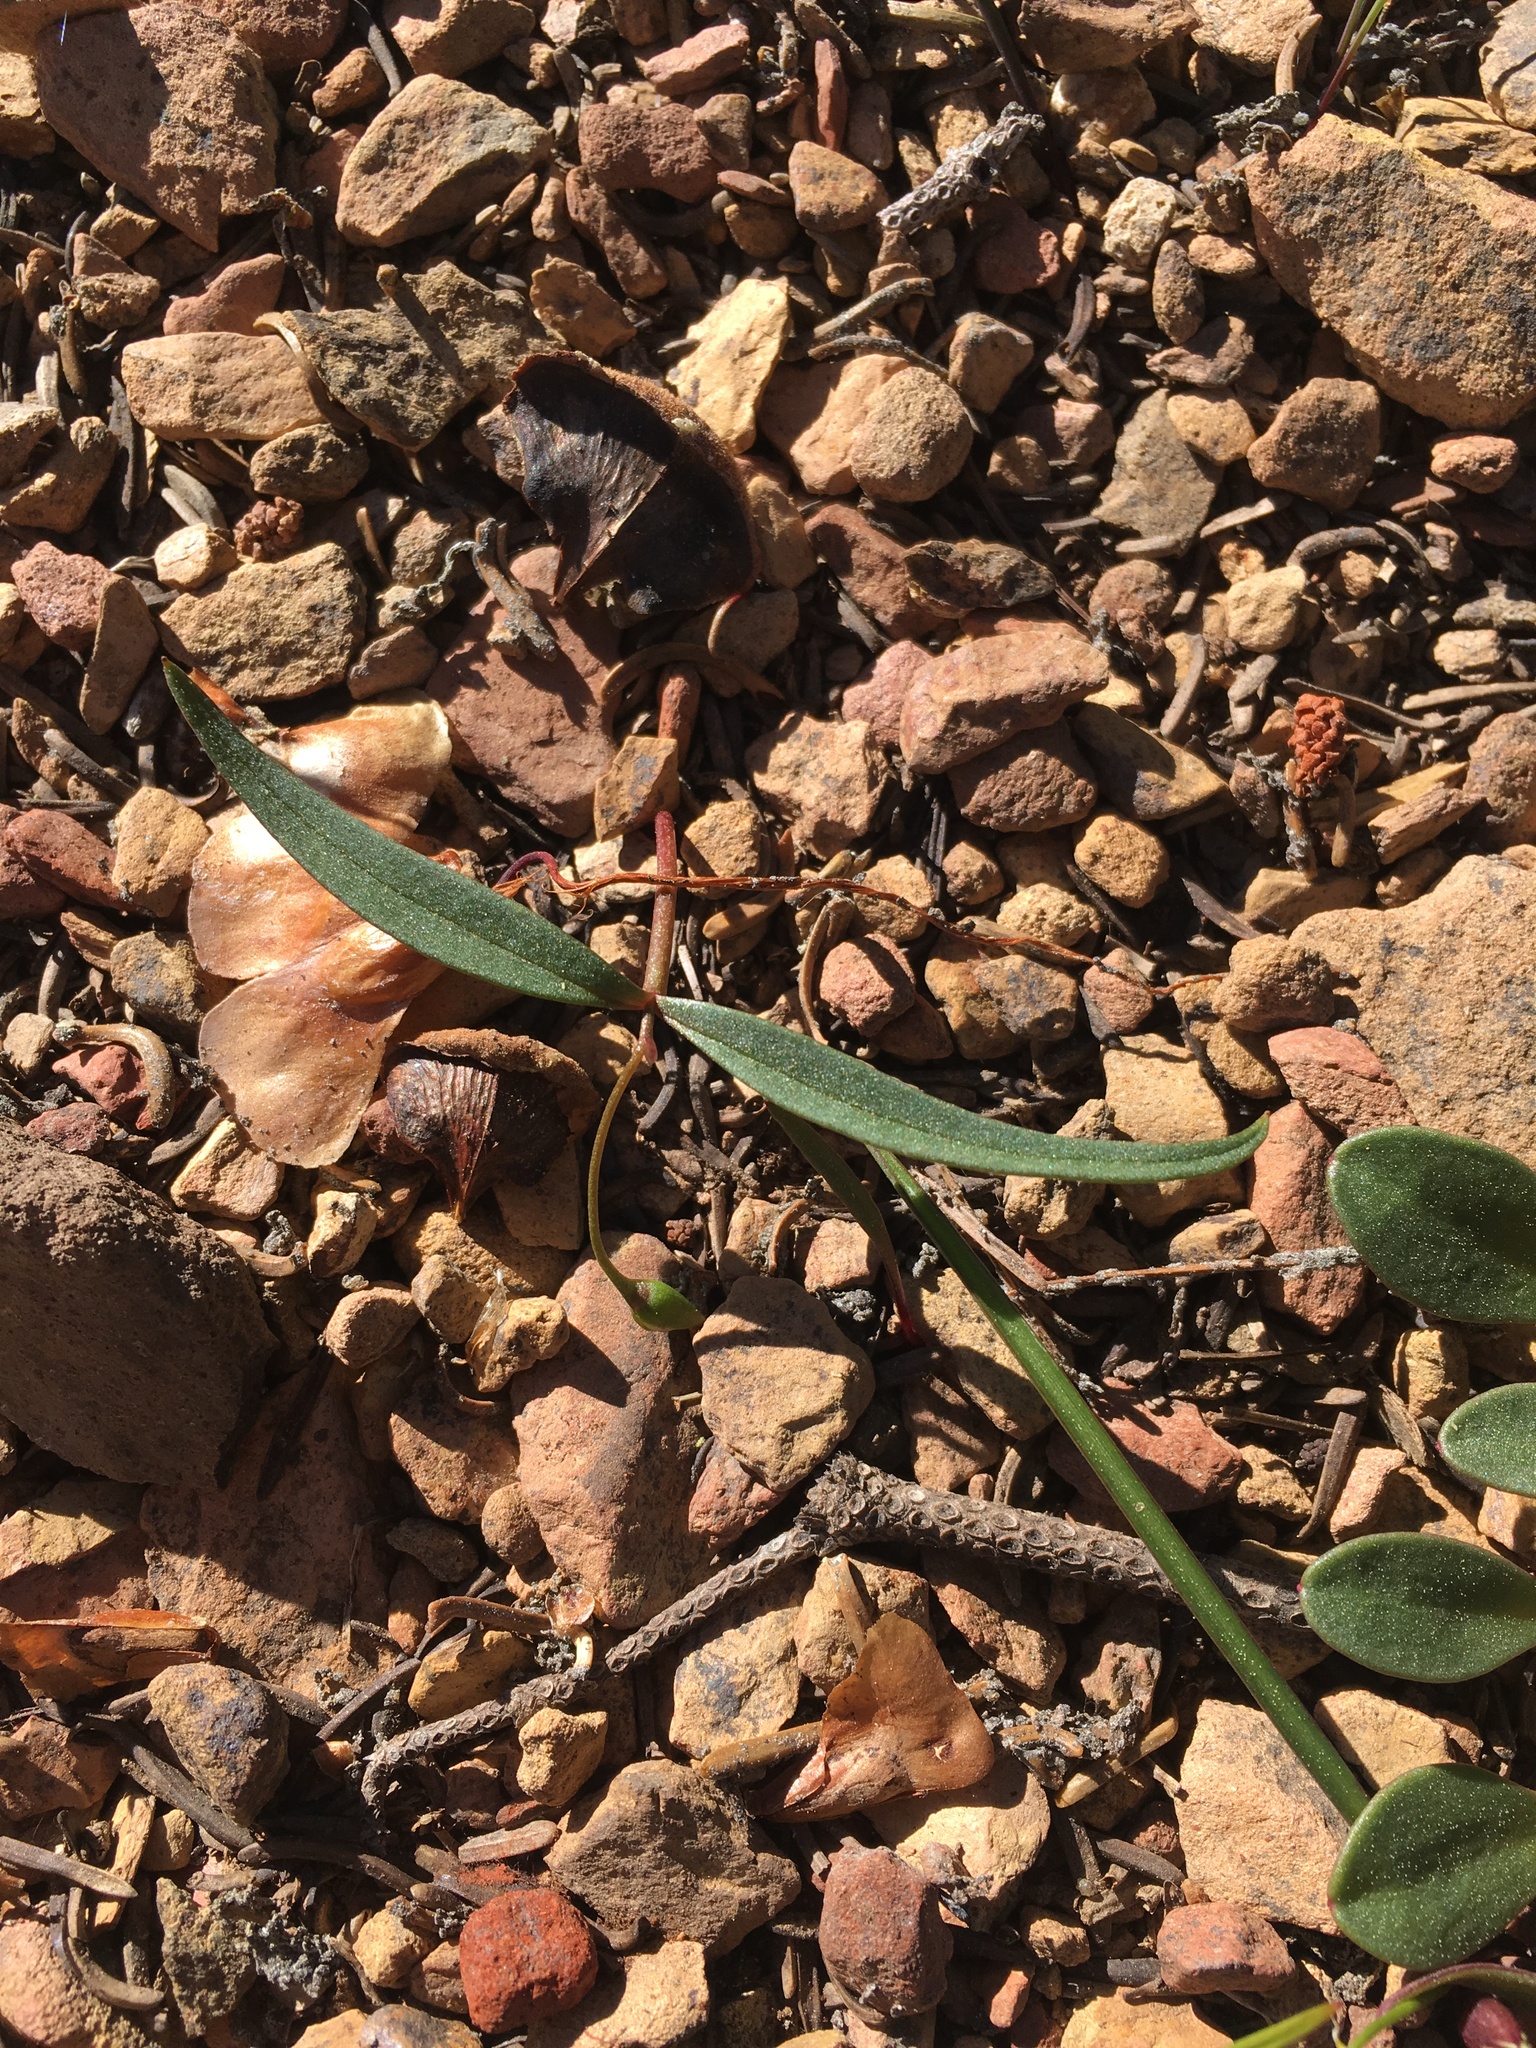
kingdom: Plantae
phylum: Tracheophyta
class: Magnoliopsida
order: Caryophyllales
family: Montiaceae
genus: Claytonia
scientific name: Claytonia lanceolata
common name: Western spring-beauty
